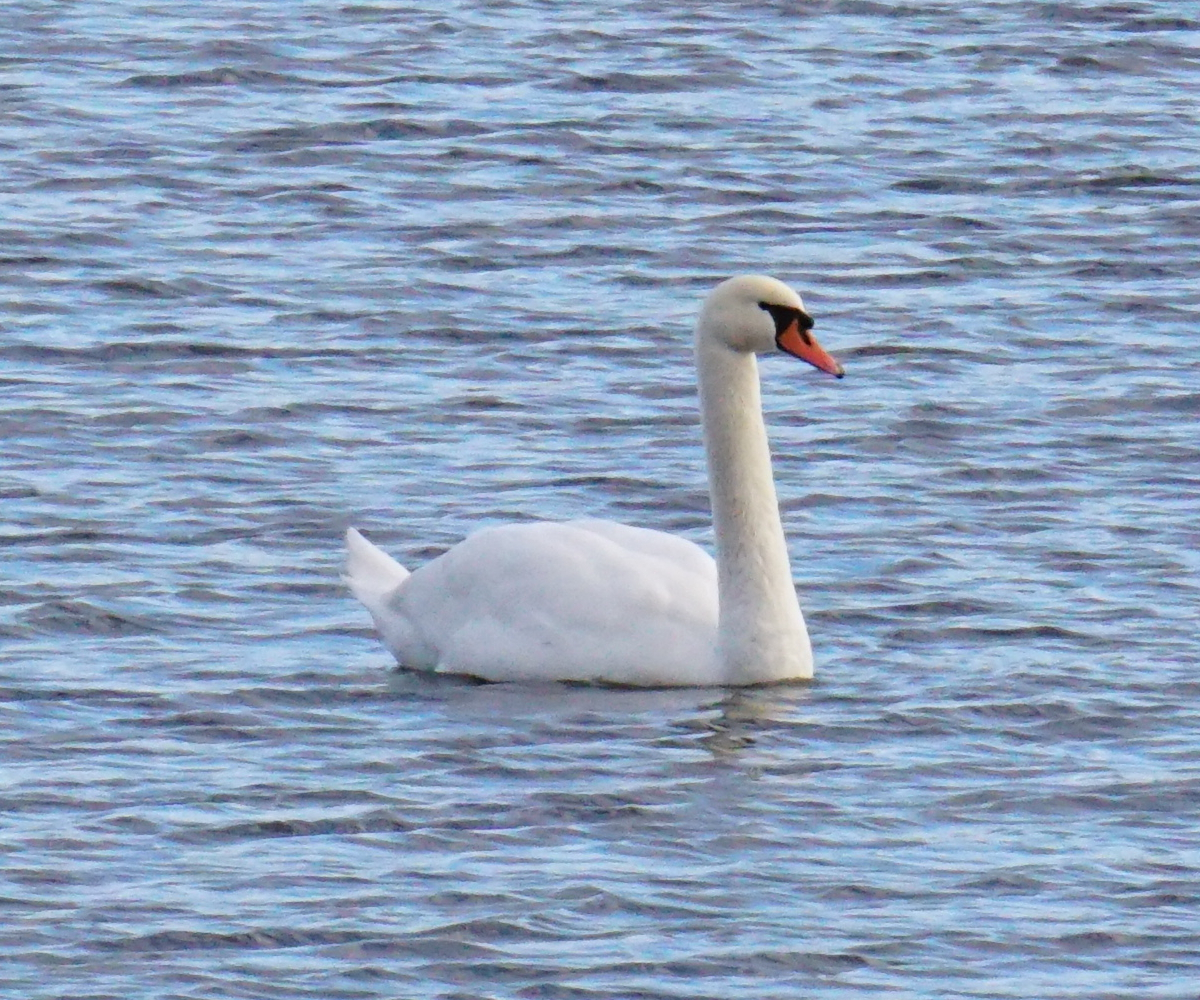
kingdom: Animalia
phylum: Chordata
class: Aves
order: Anseriformes
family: Anatidae
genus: Cygnus
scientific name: Cygnus olor
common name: Mute swan
